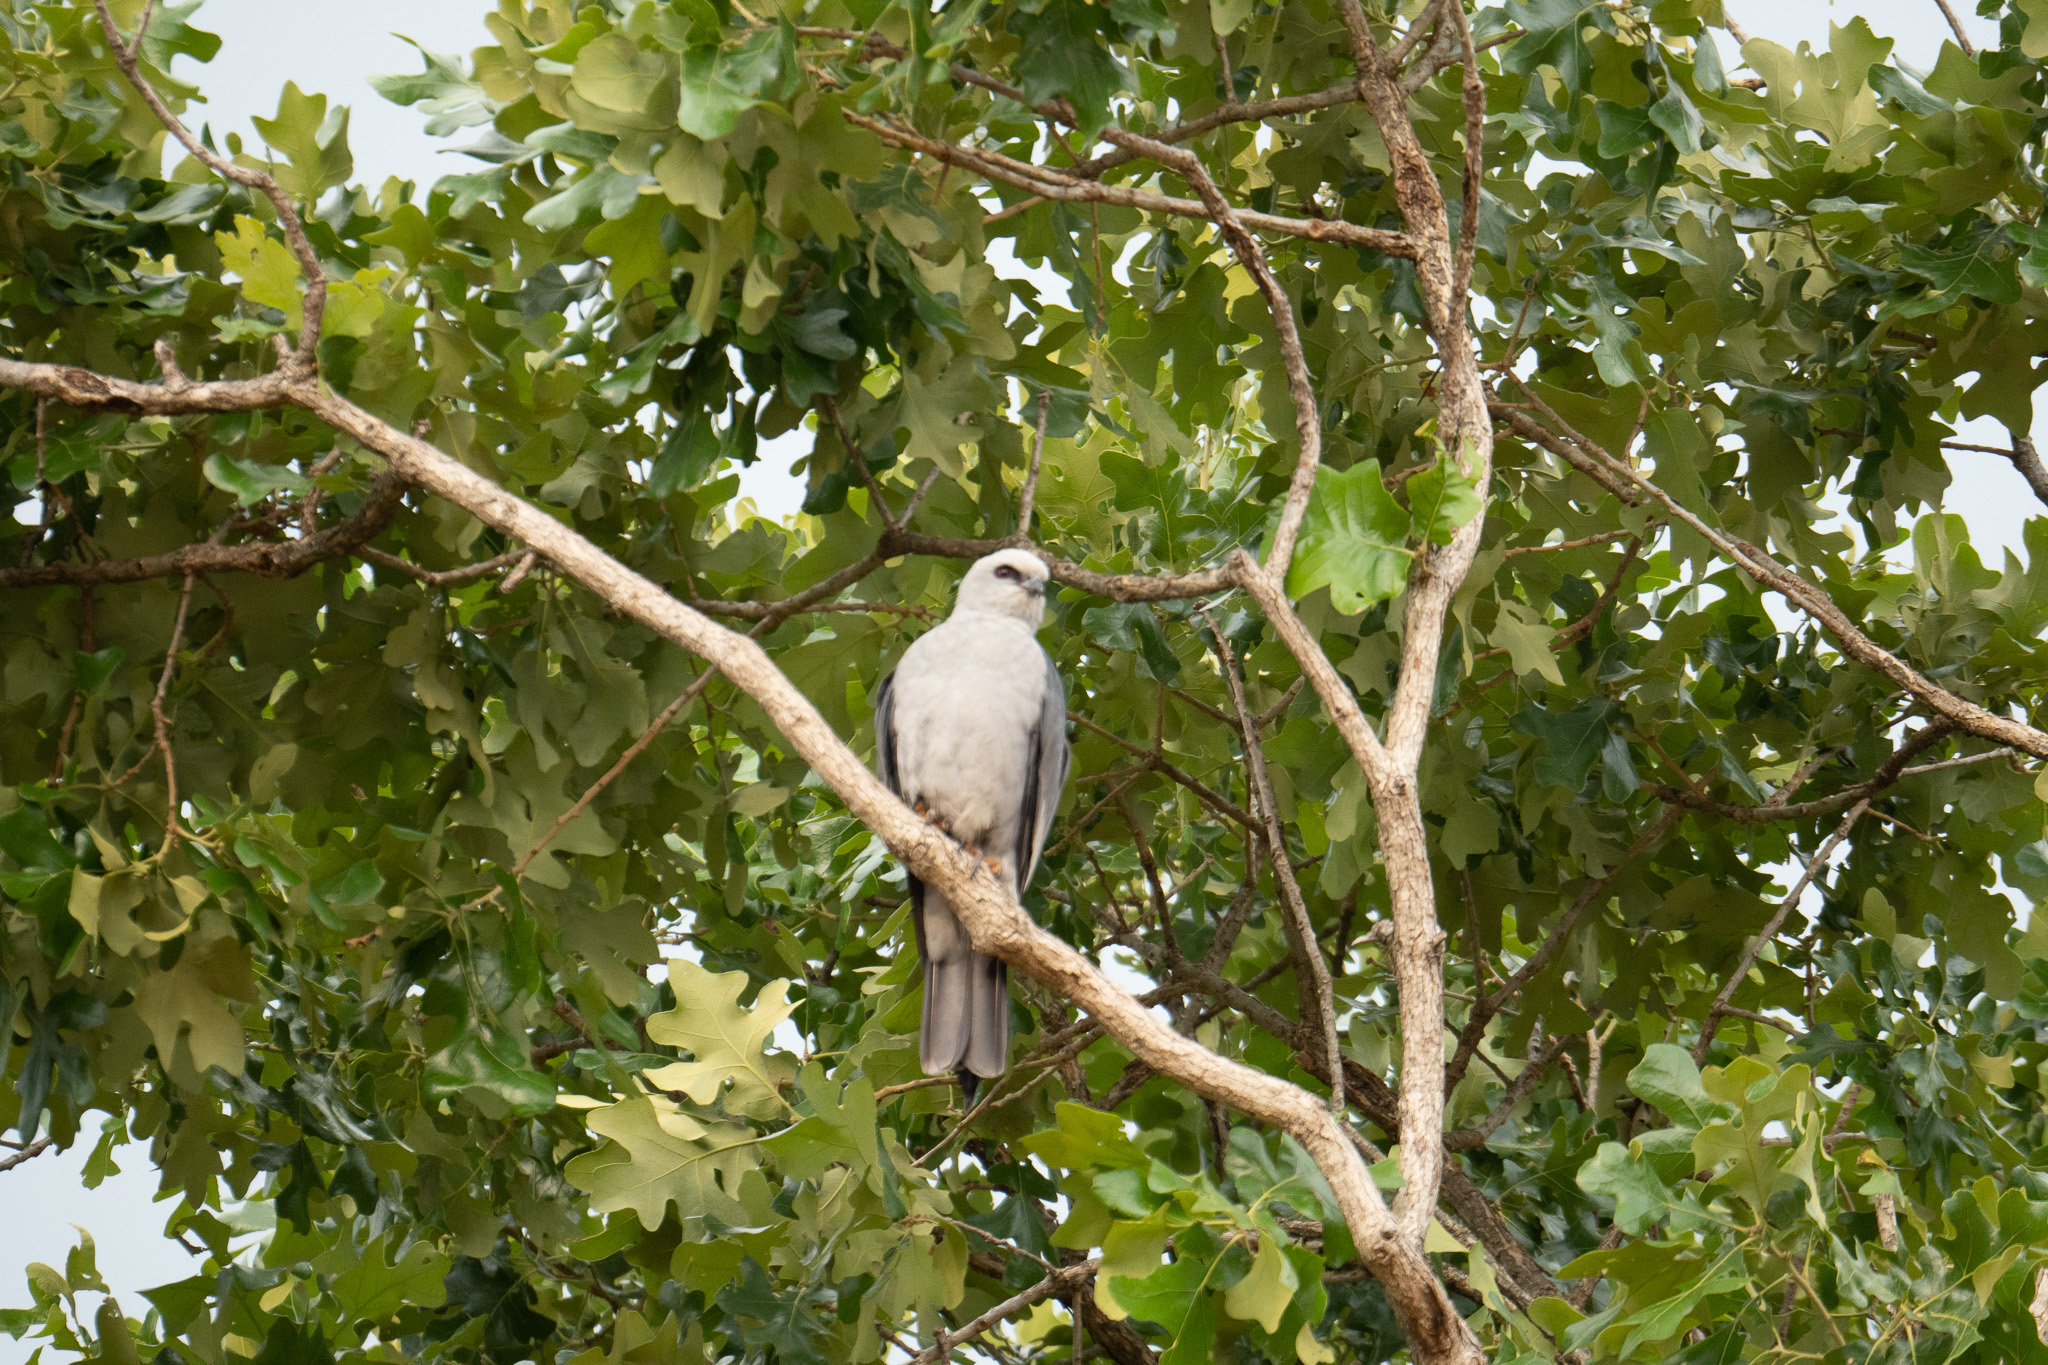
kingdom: Animalia
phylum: Chordata
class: Aves
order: Accipitriformes
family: Accipitridae
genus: Ictinia
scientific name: Ictinia mississippiensis
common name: Mississippi kite
